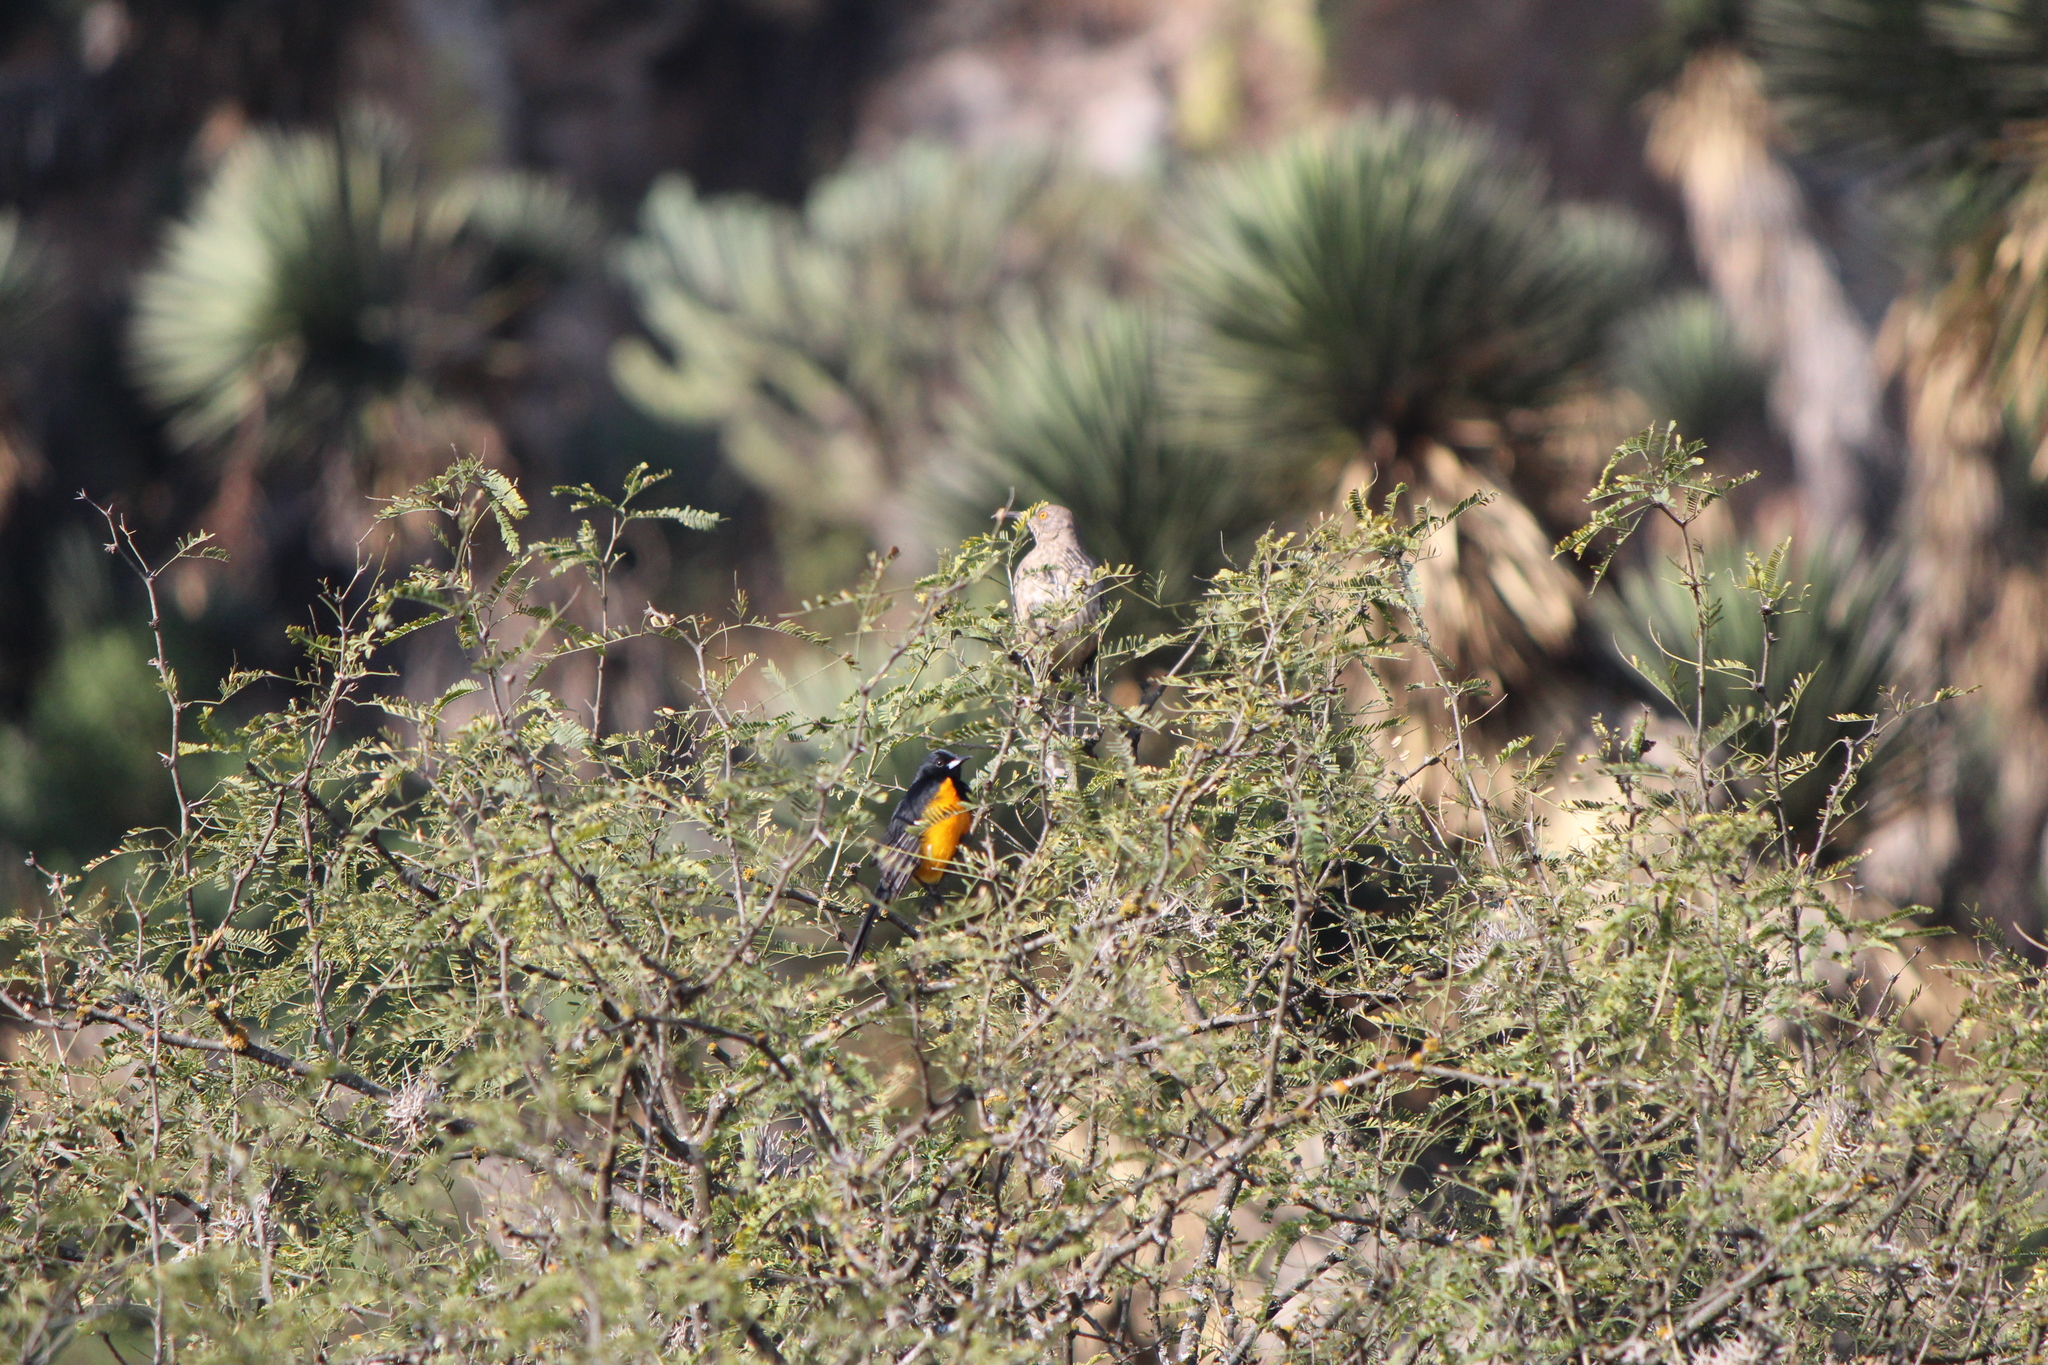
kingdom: Animalia
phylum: Chordata
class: Aves
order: Passeriformes
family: Icteridae
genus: Icterus
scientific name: Icterus wagleri
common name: Black-vented oriole
